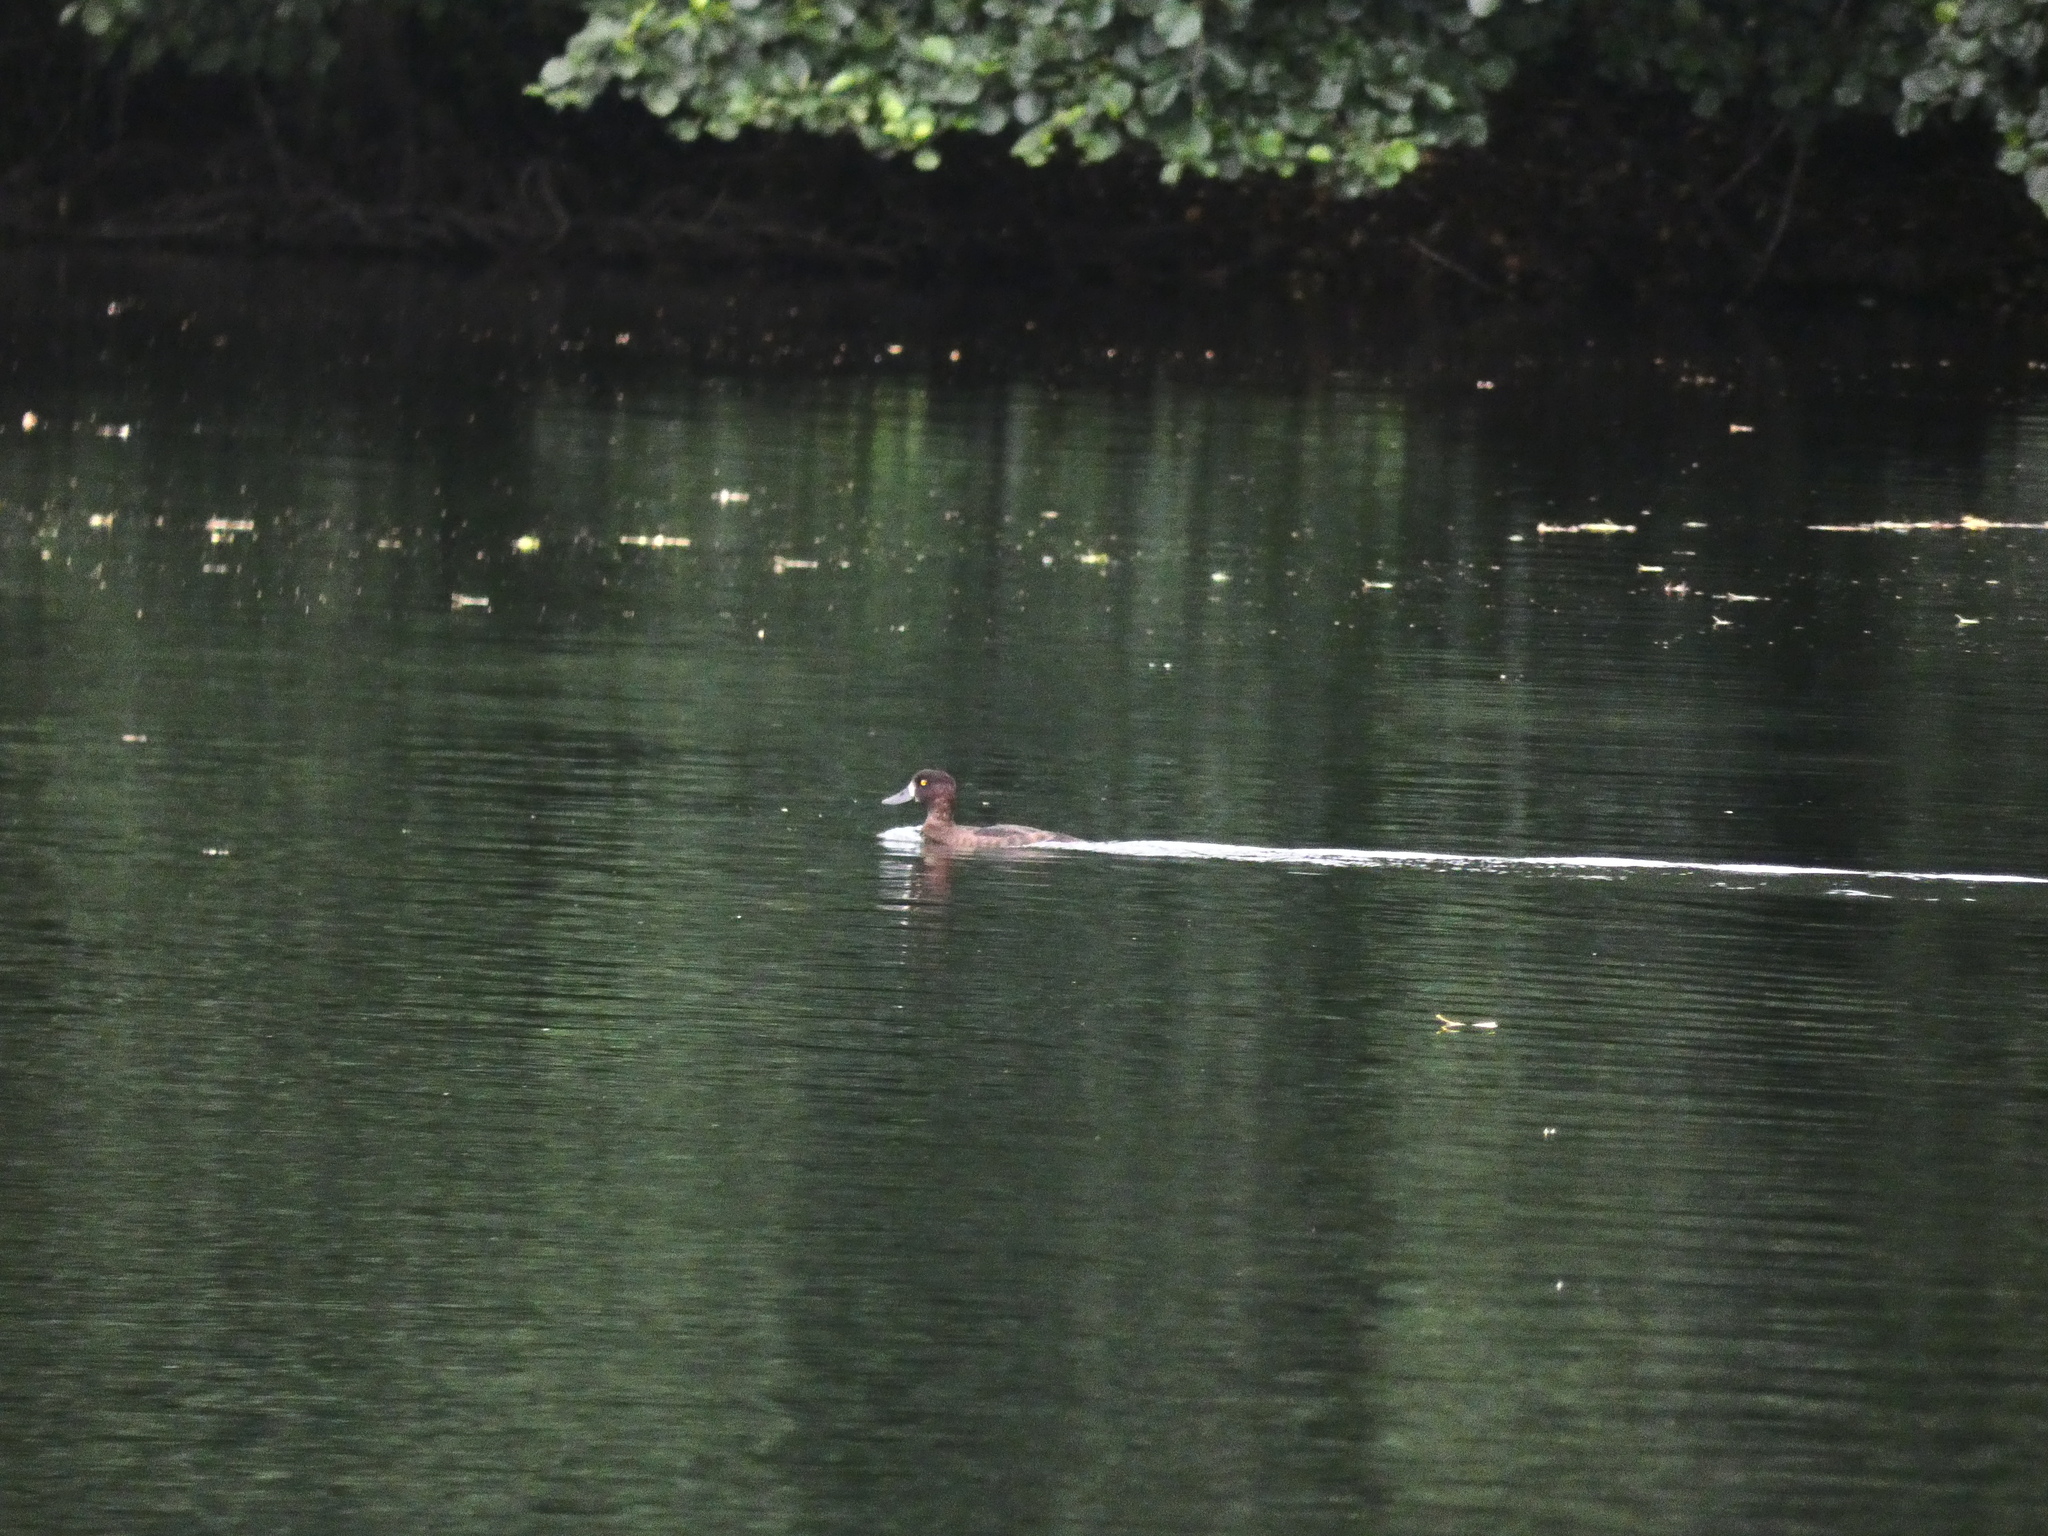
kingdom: Animalia
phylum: Chordata
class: Aves
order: Anseriformes
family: Anatidae
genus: Aythya
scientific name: Aythya fuligula
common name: Tufted duck
